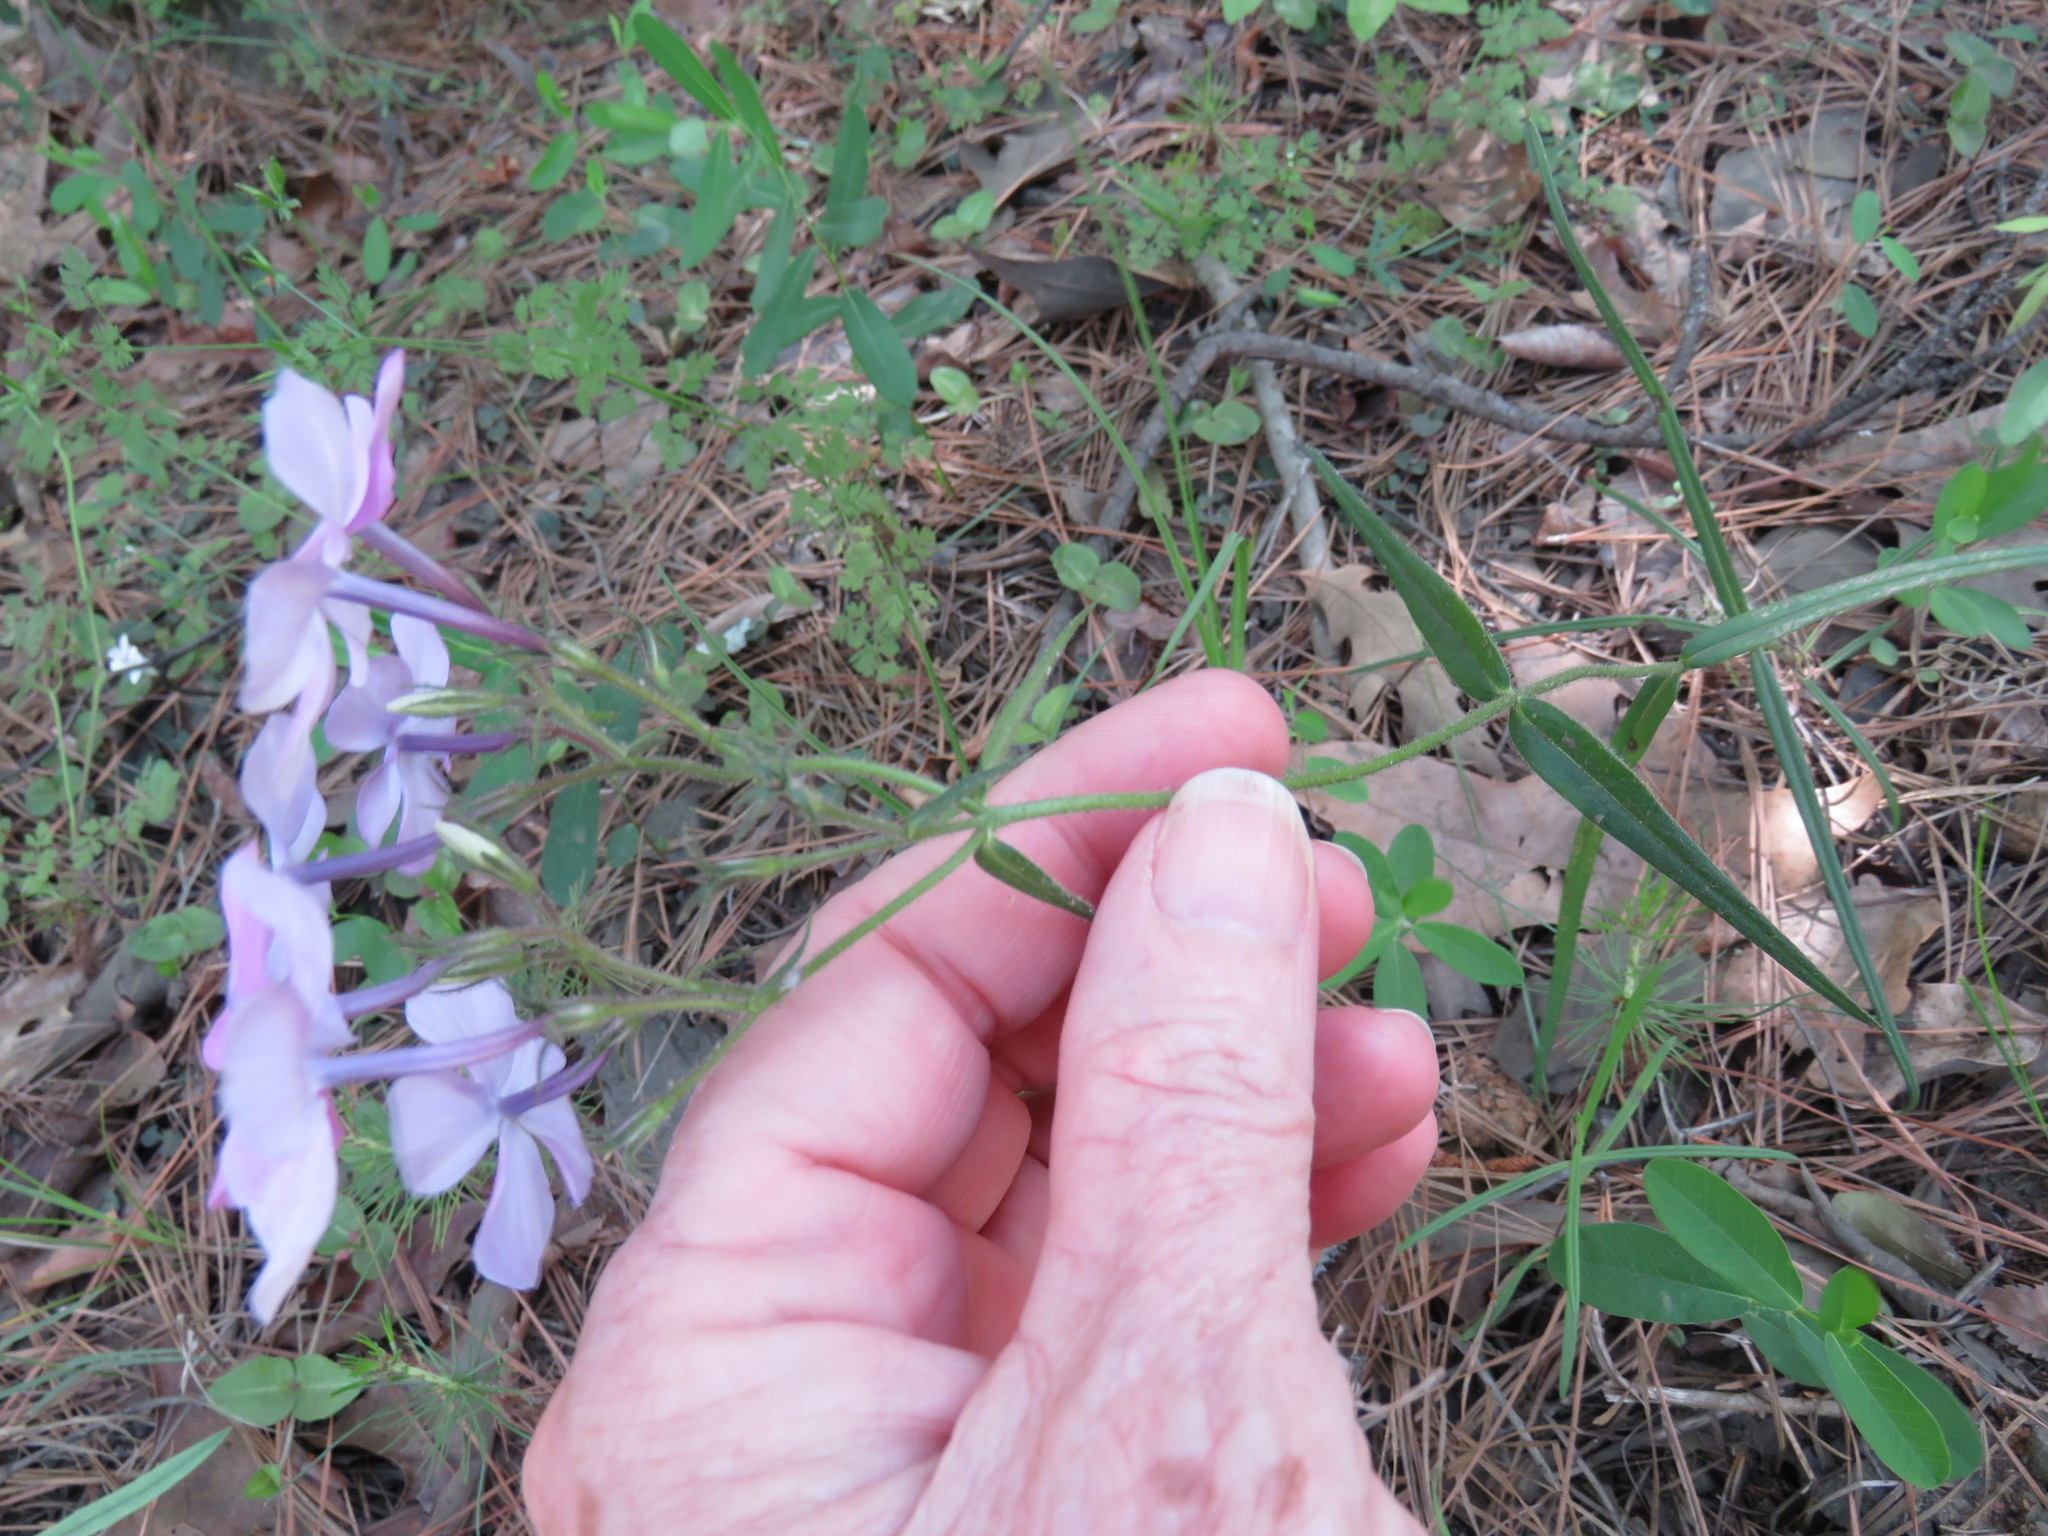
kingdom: Plantae
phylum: Tracheophyta
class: Magnoliopsida
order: Ericales
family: Polemoniaceae
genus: Phlox
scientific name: Phlox pilosa
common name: Prairie phlox
